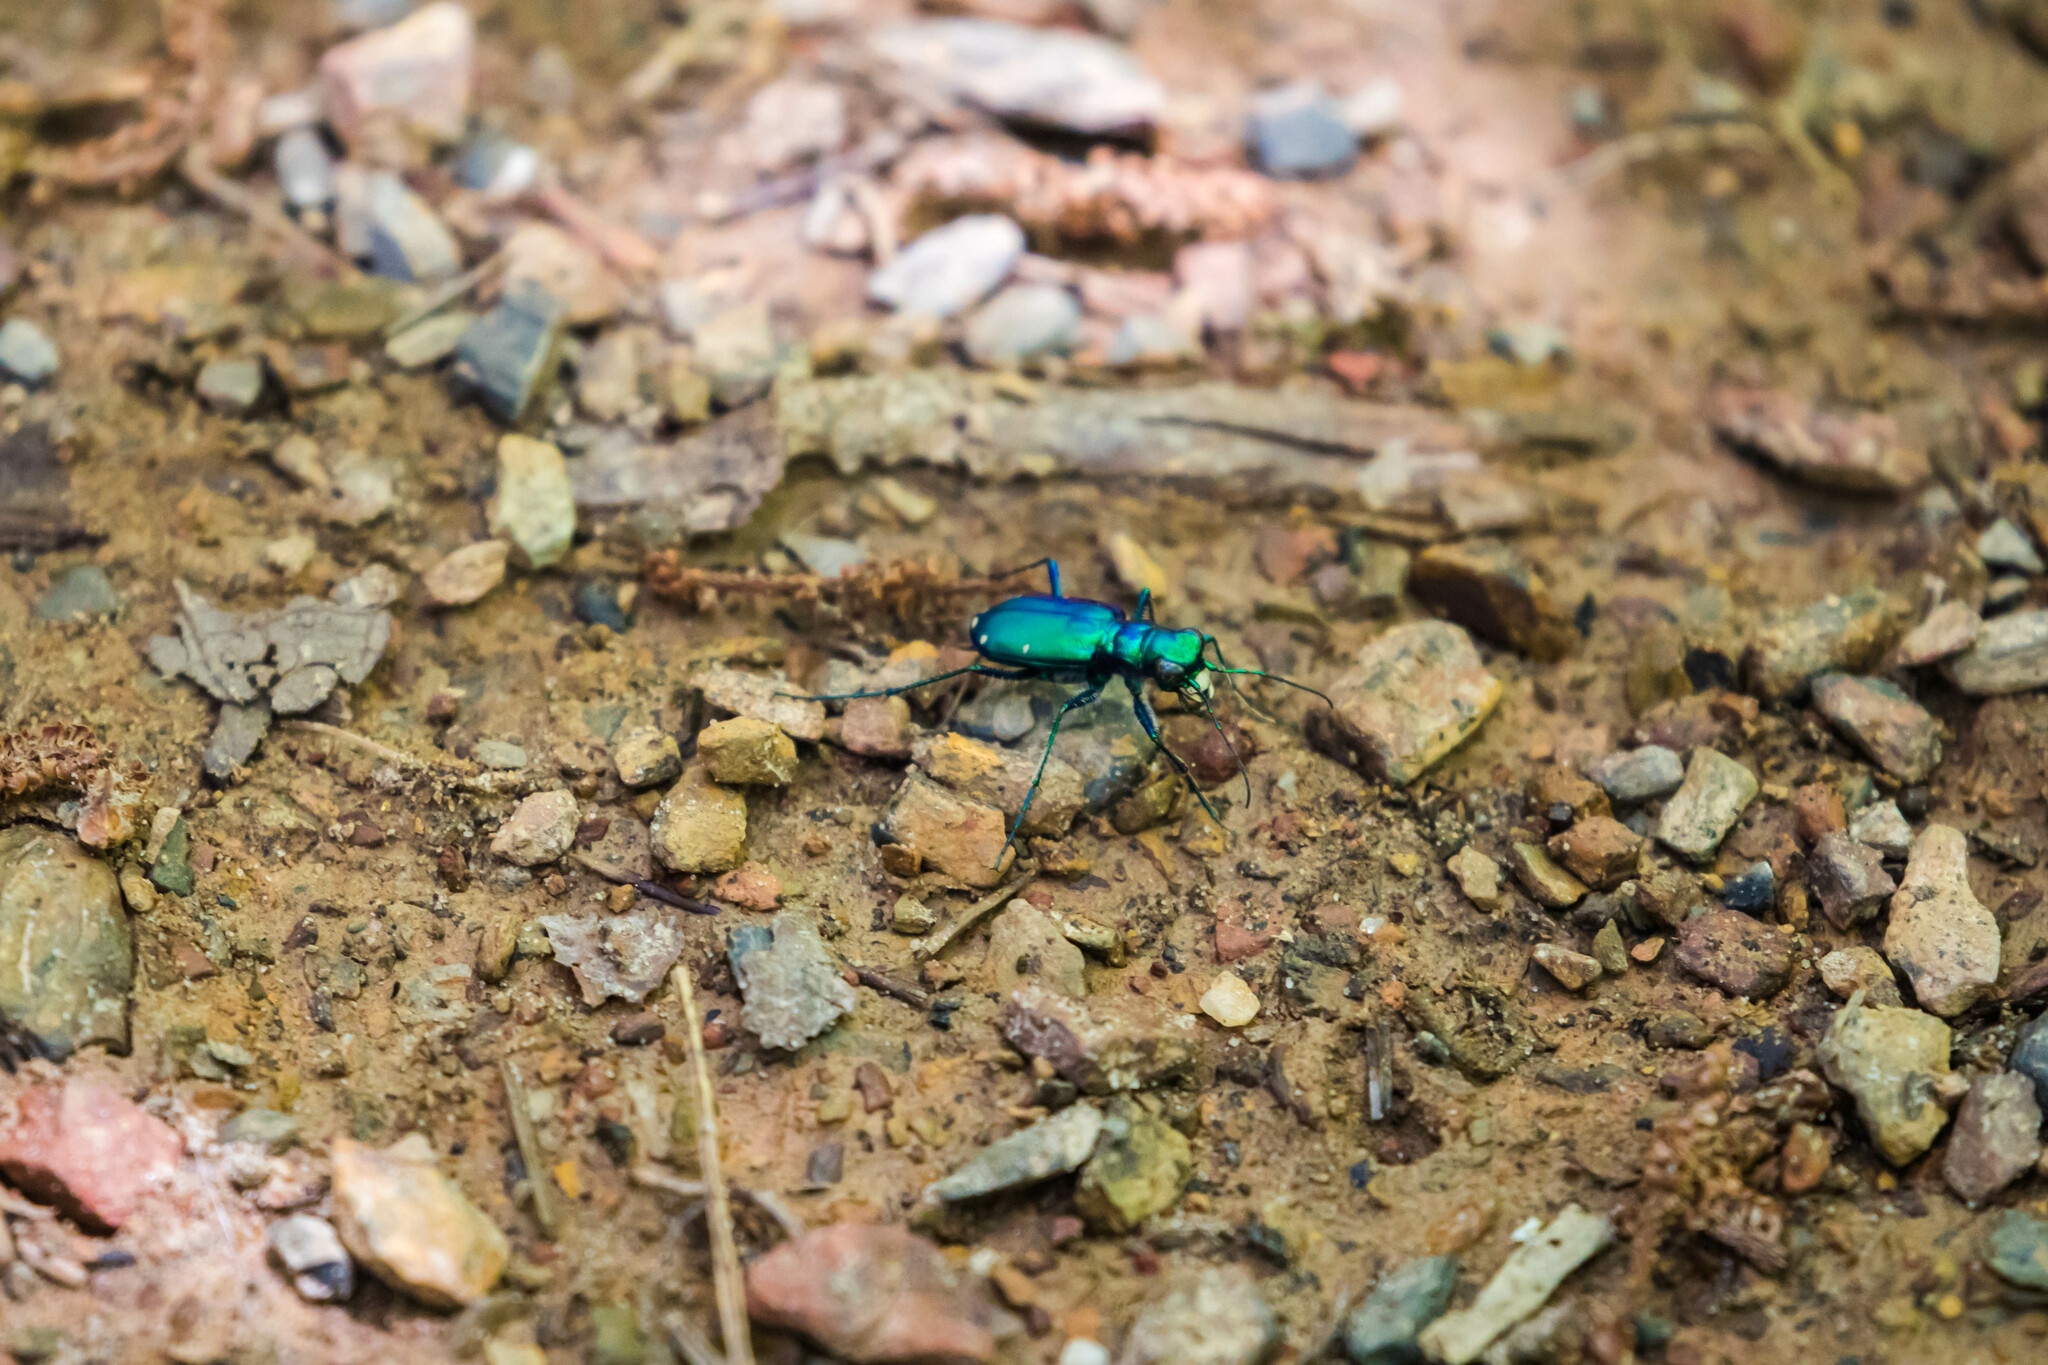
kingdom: Animalia
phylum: Arthropoda
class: Insecta
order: Coleoptera
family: Carabidae
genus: Cicindela
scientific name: Cicindela sexguttata
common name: Six-spotted tiger beetle
